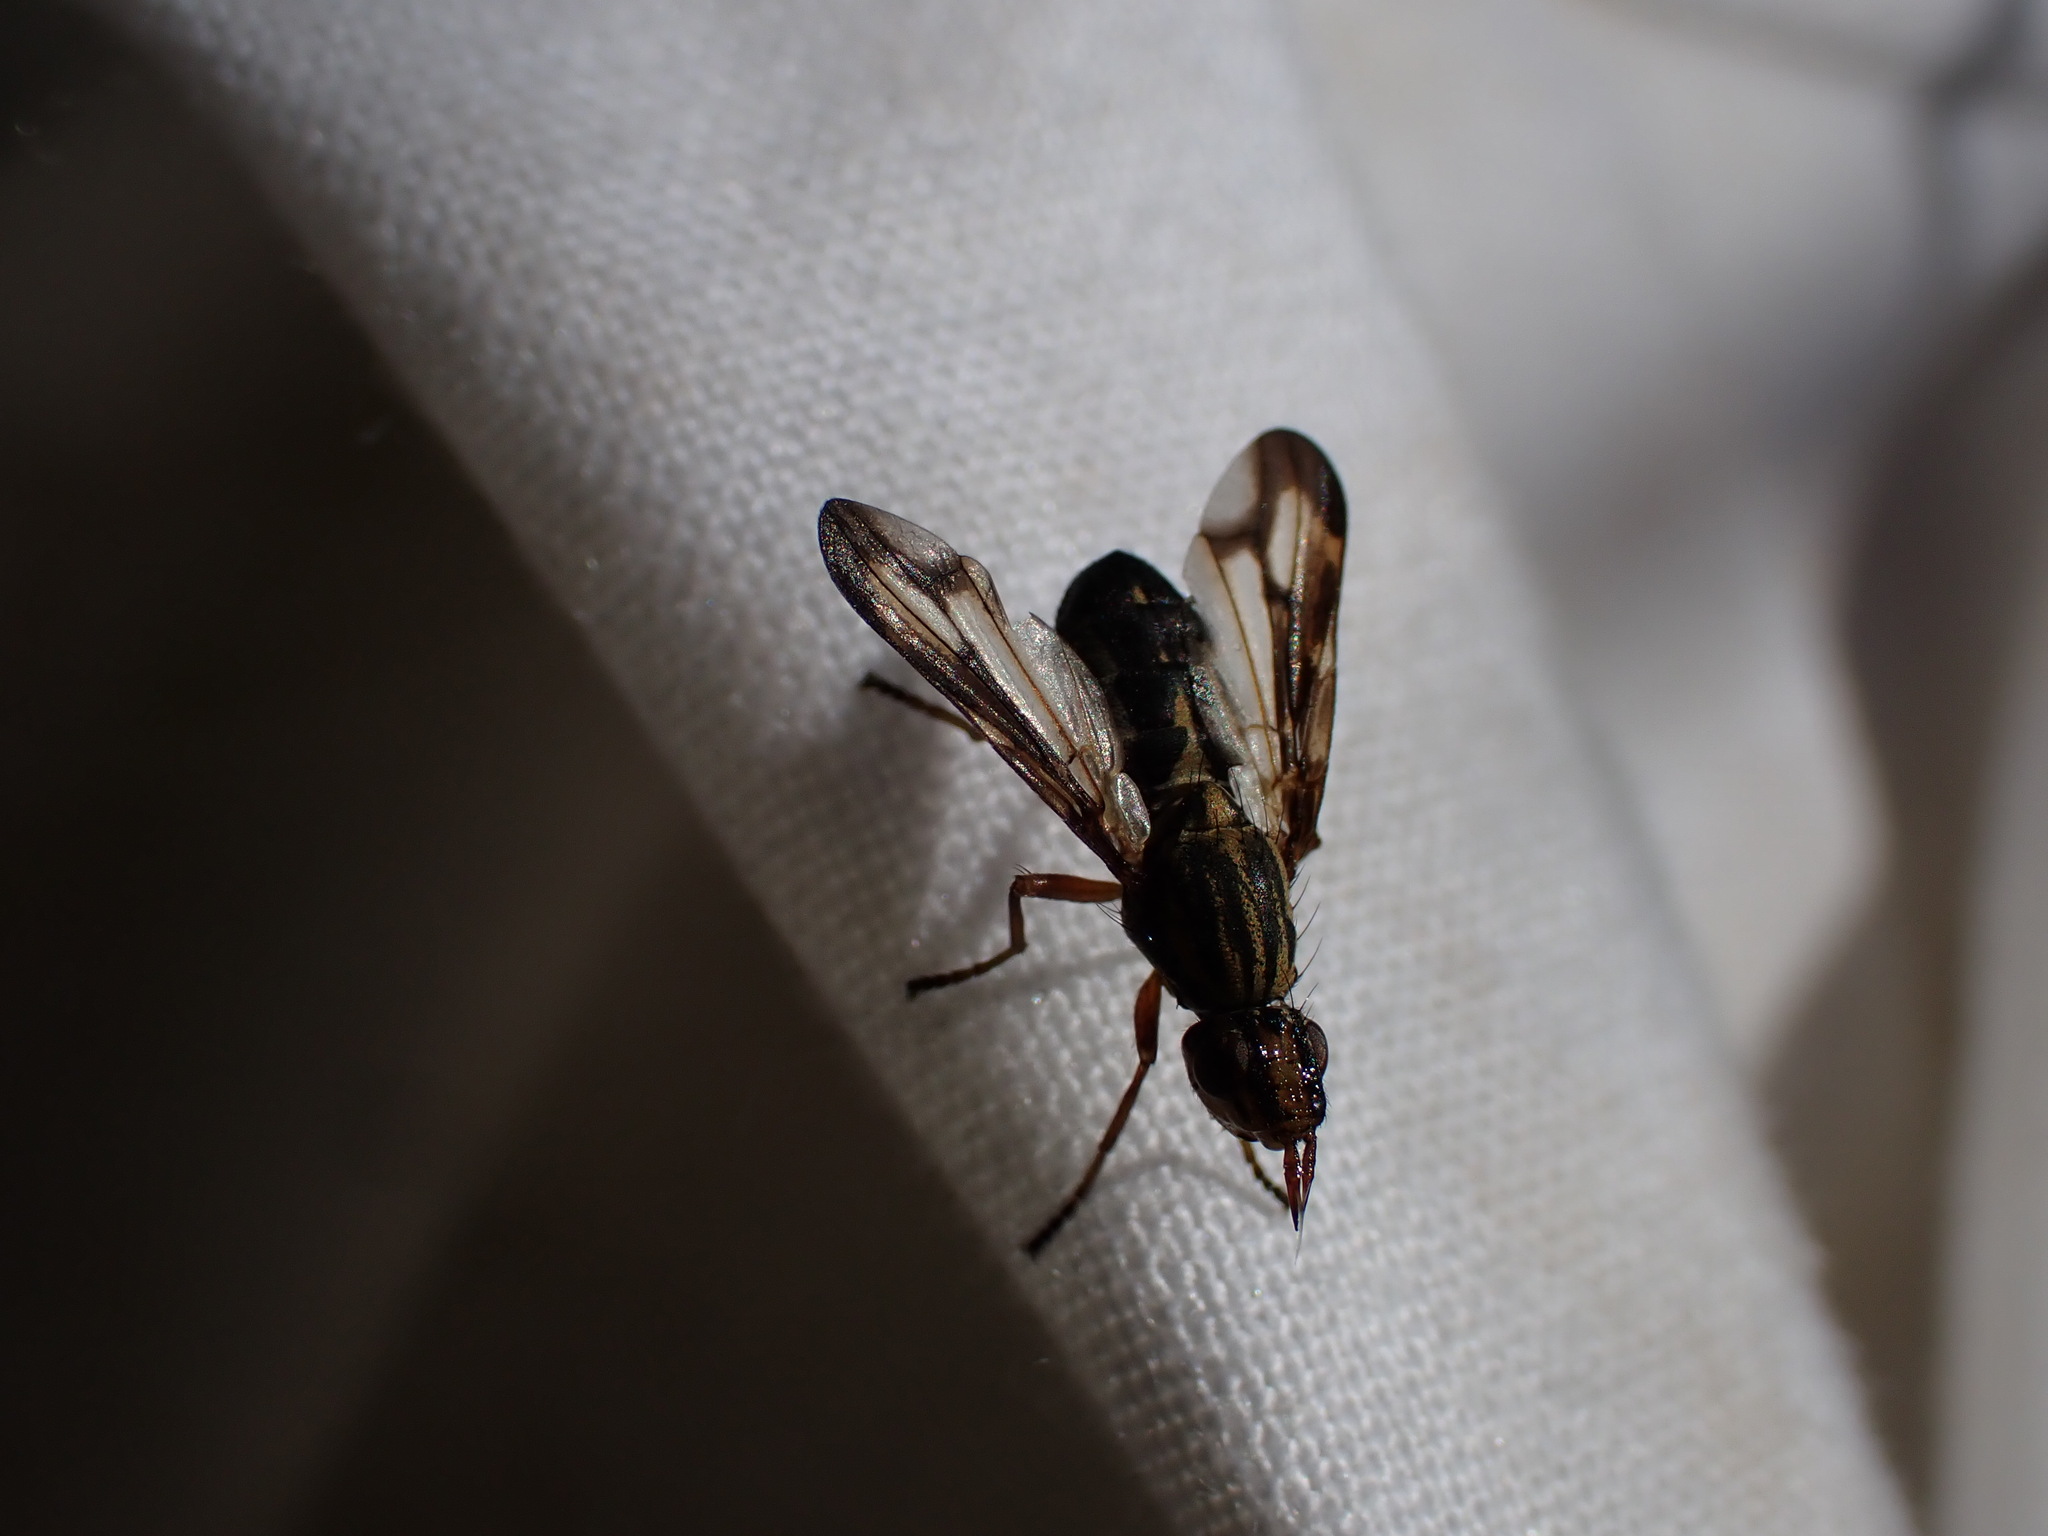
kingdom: Animalia
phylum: Arthropoda
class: Insecta
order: Diptera
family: Ulidiidae
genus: Dorycera
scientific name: Dorycera grandis
